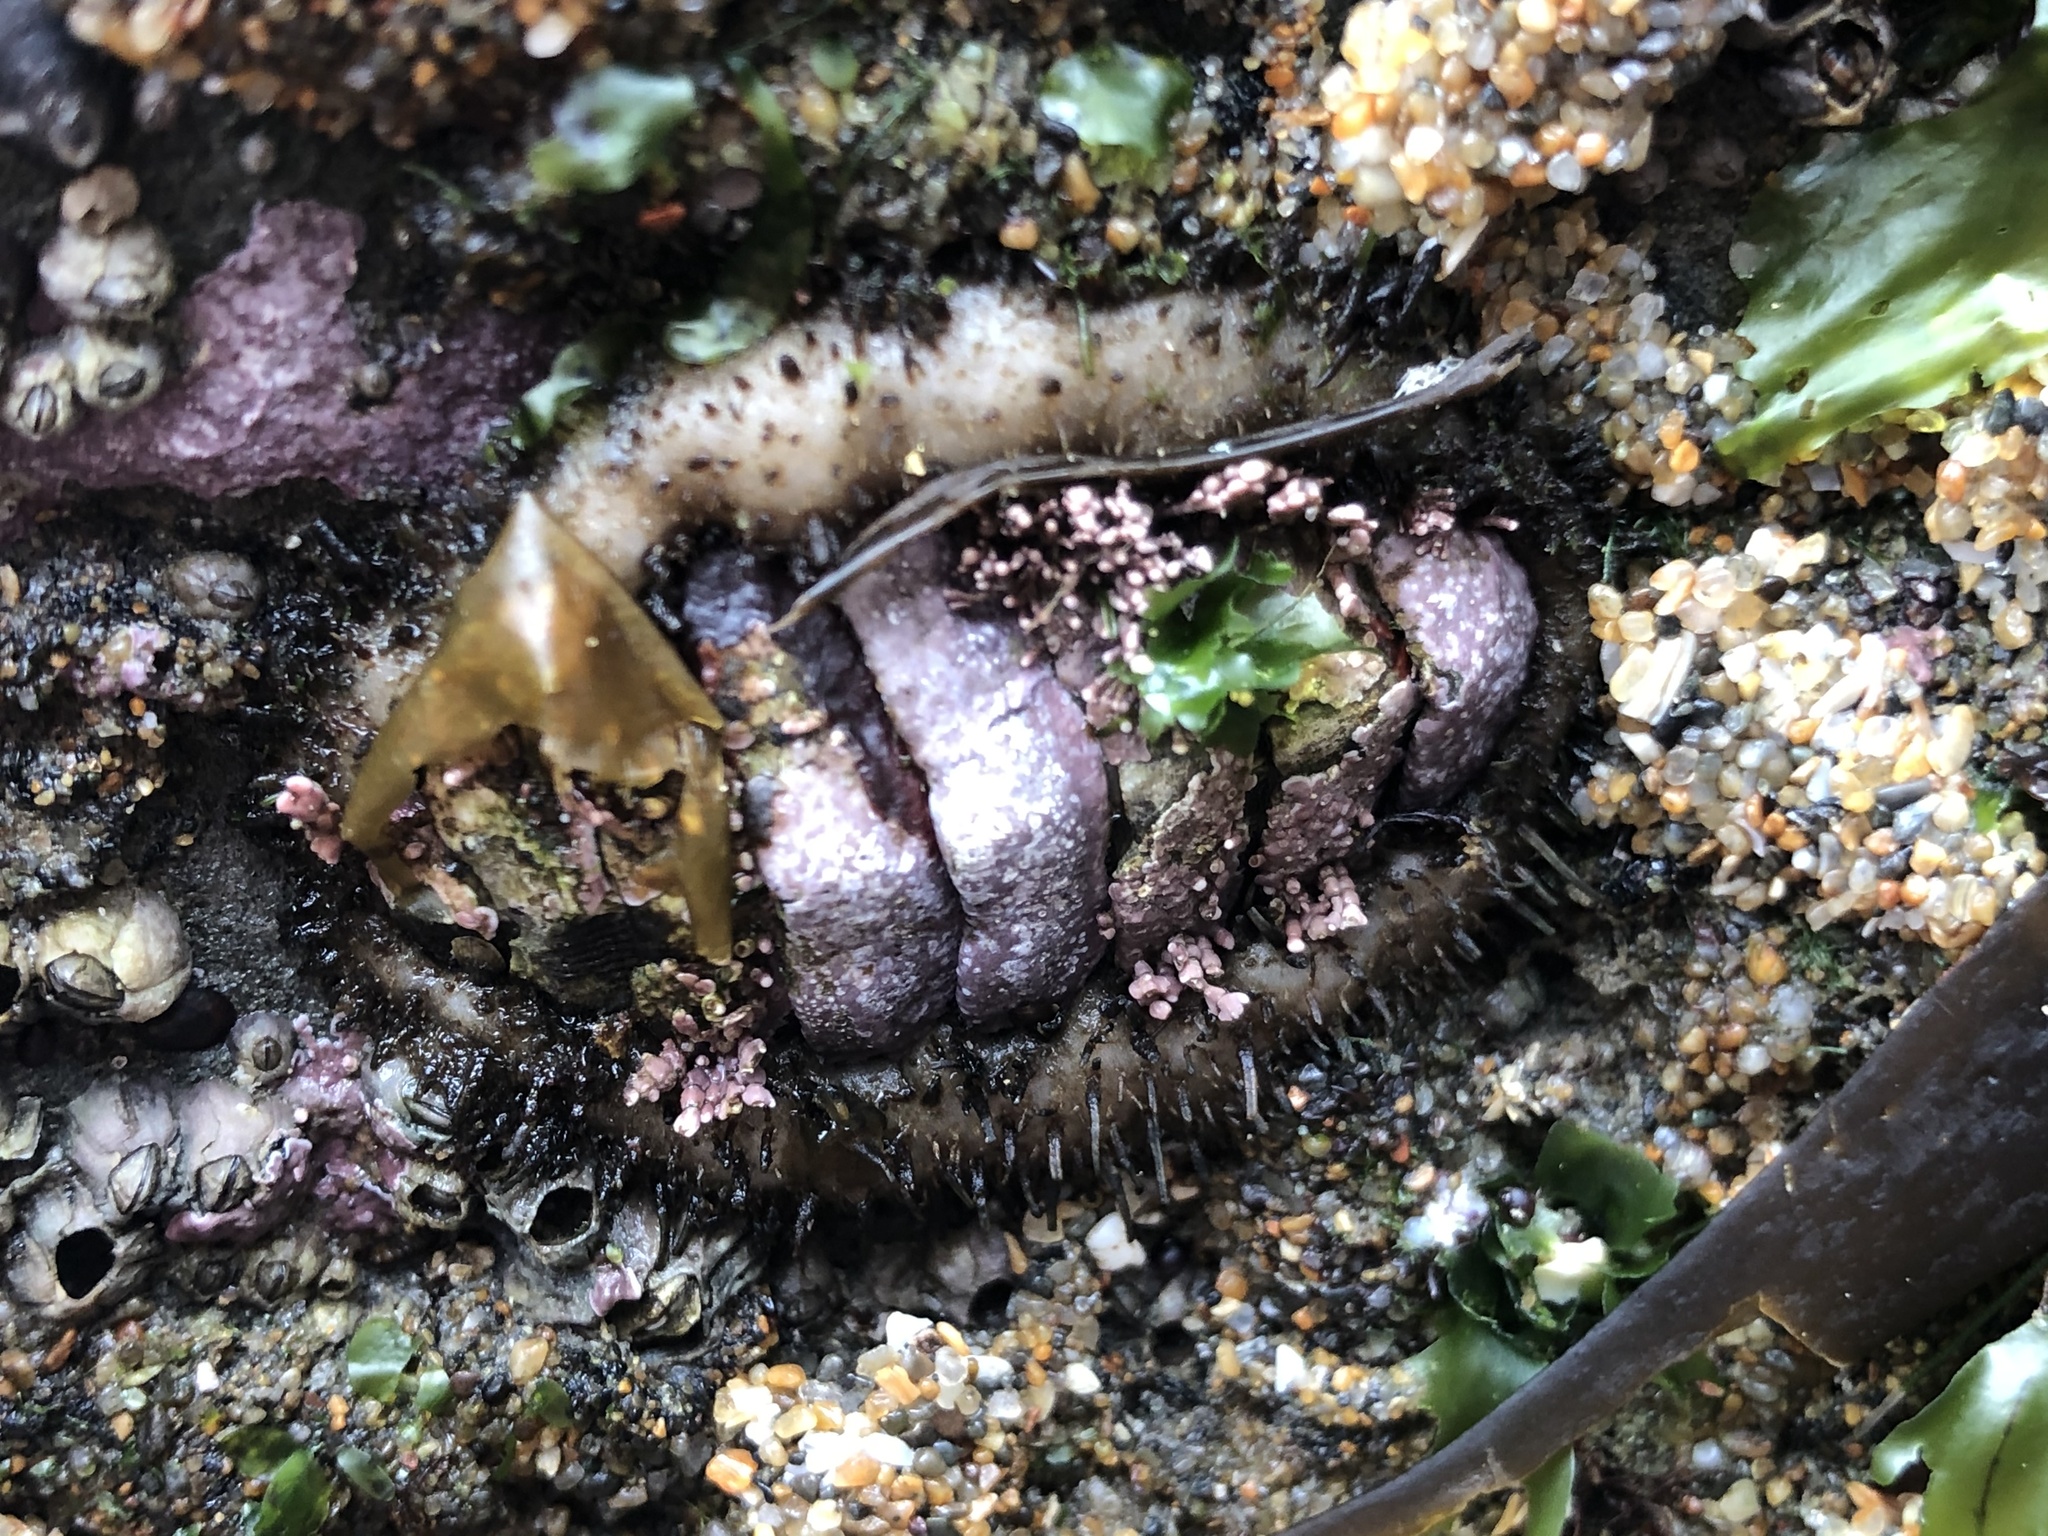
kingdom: Animalia
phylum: Mollusca
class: Polyplacophora
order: Chitonida
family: Mopaliidae
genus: Mopalia
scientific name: Mopalia muscosa
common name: Mossy chiton
